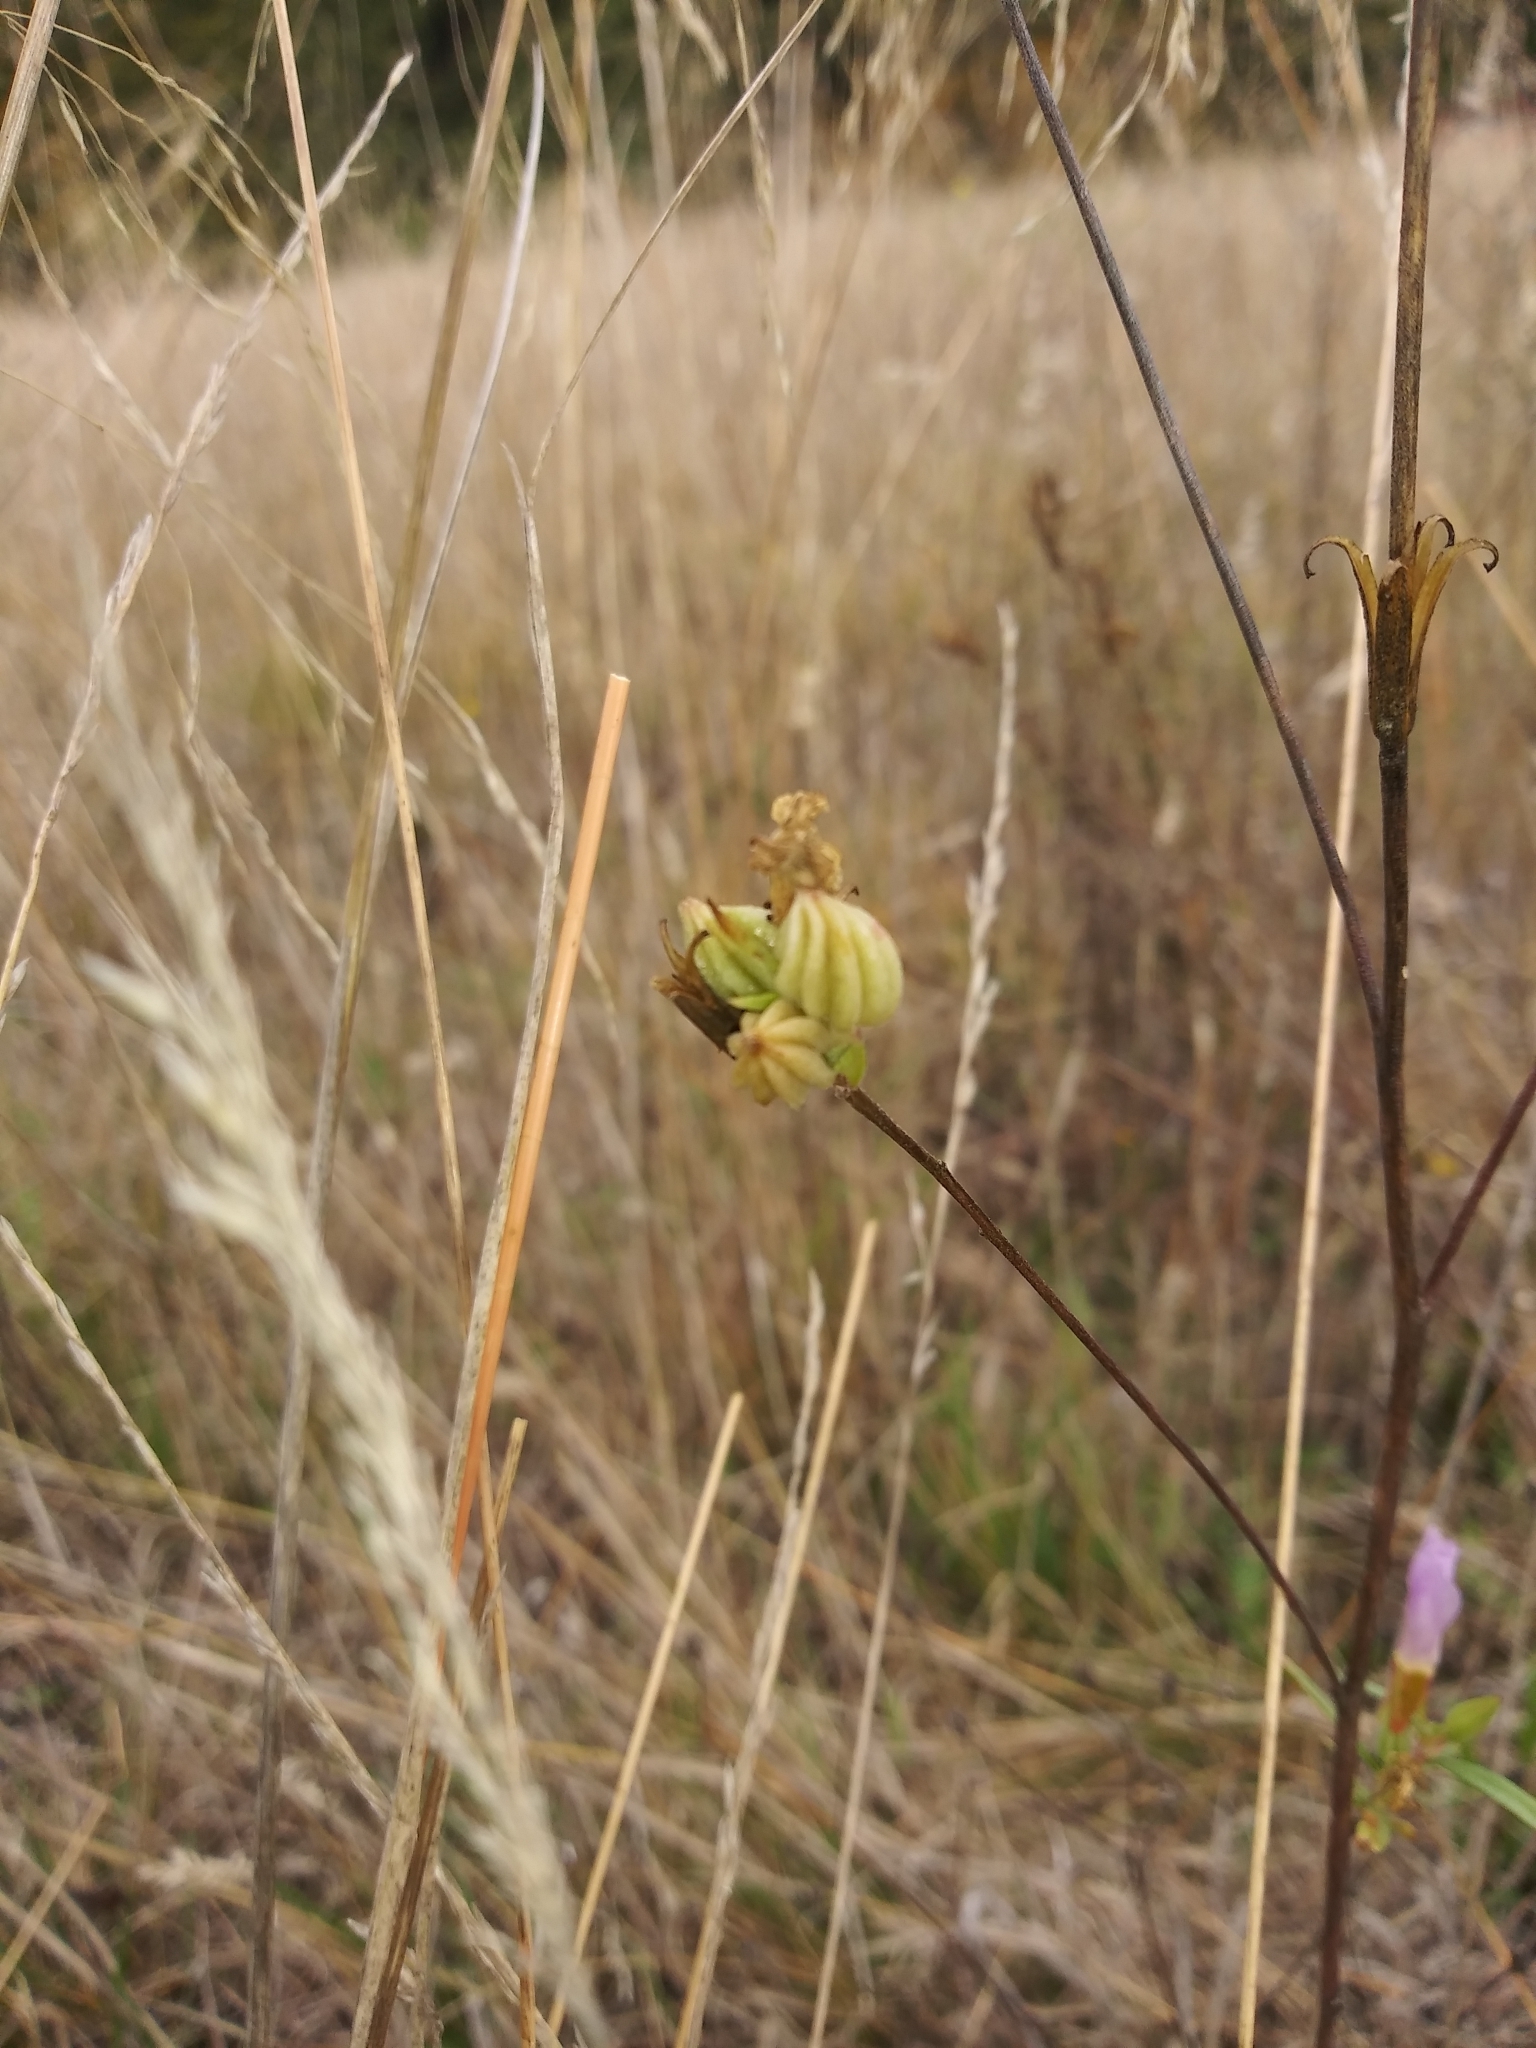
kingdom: Plantae
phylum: Tracheophyta
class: Magnoliopsida
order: Myrtales
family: Onagraceae
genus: Clarkia
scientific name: Clarkia purpurea
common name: Purple clarkia
